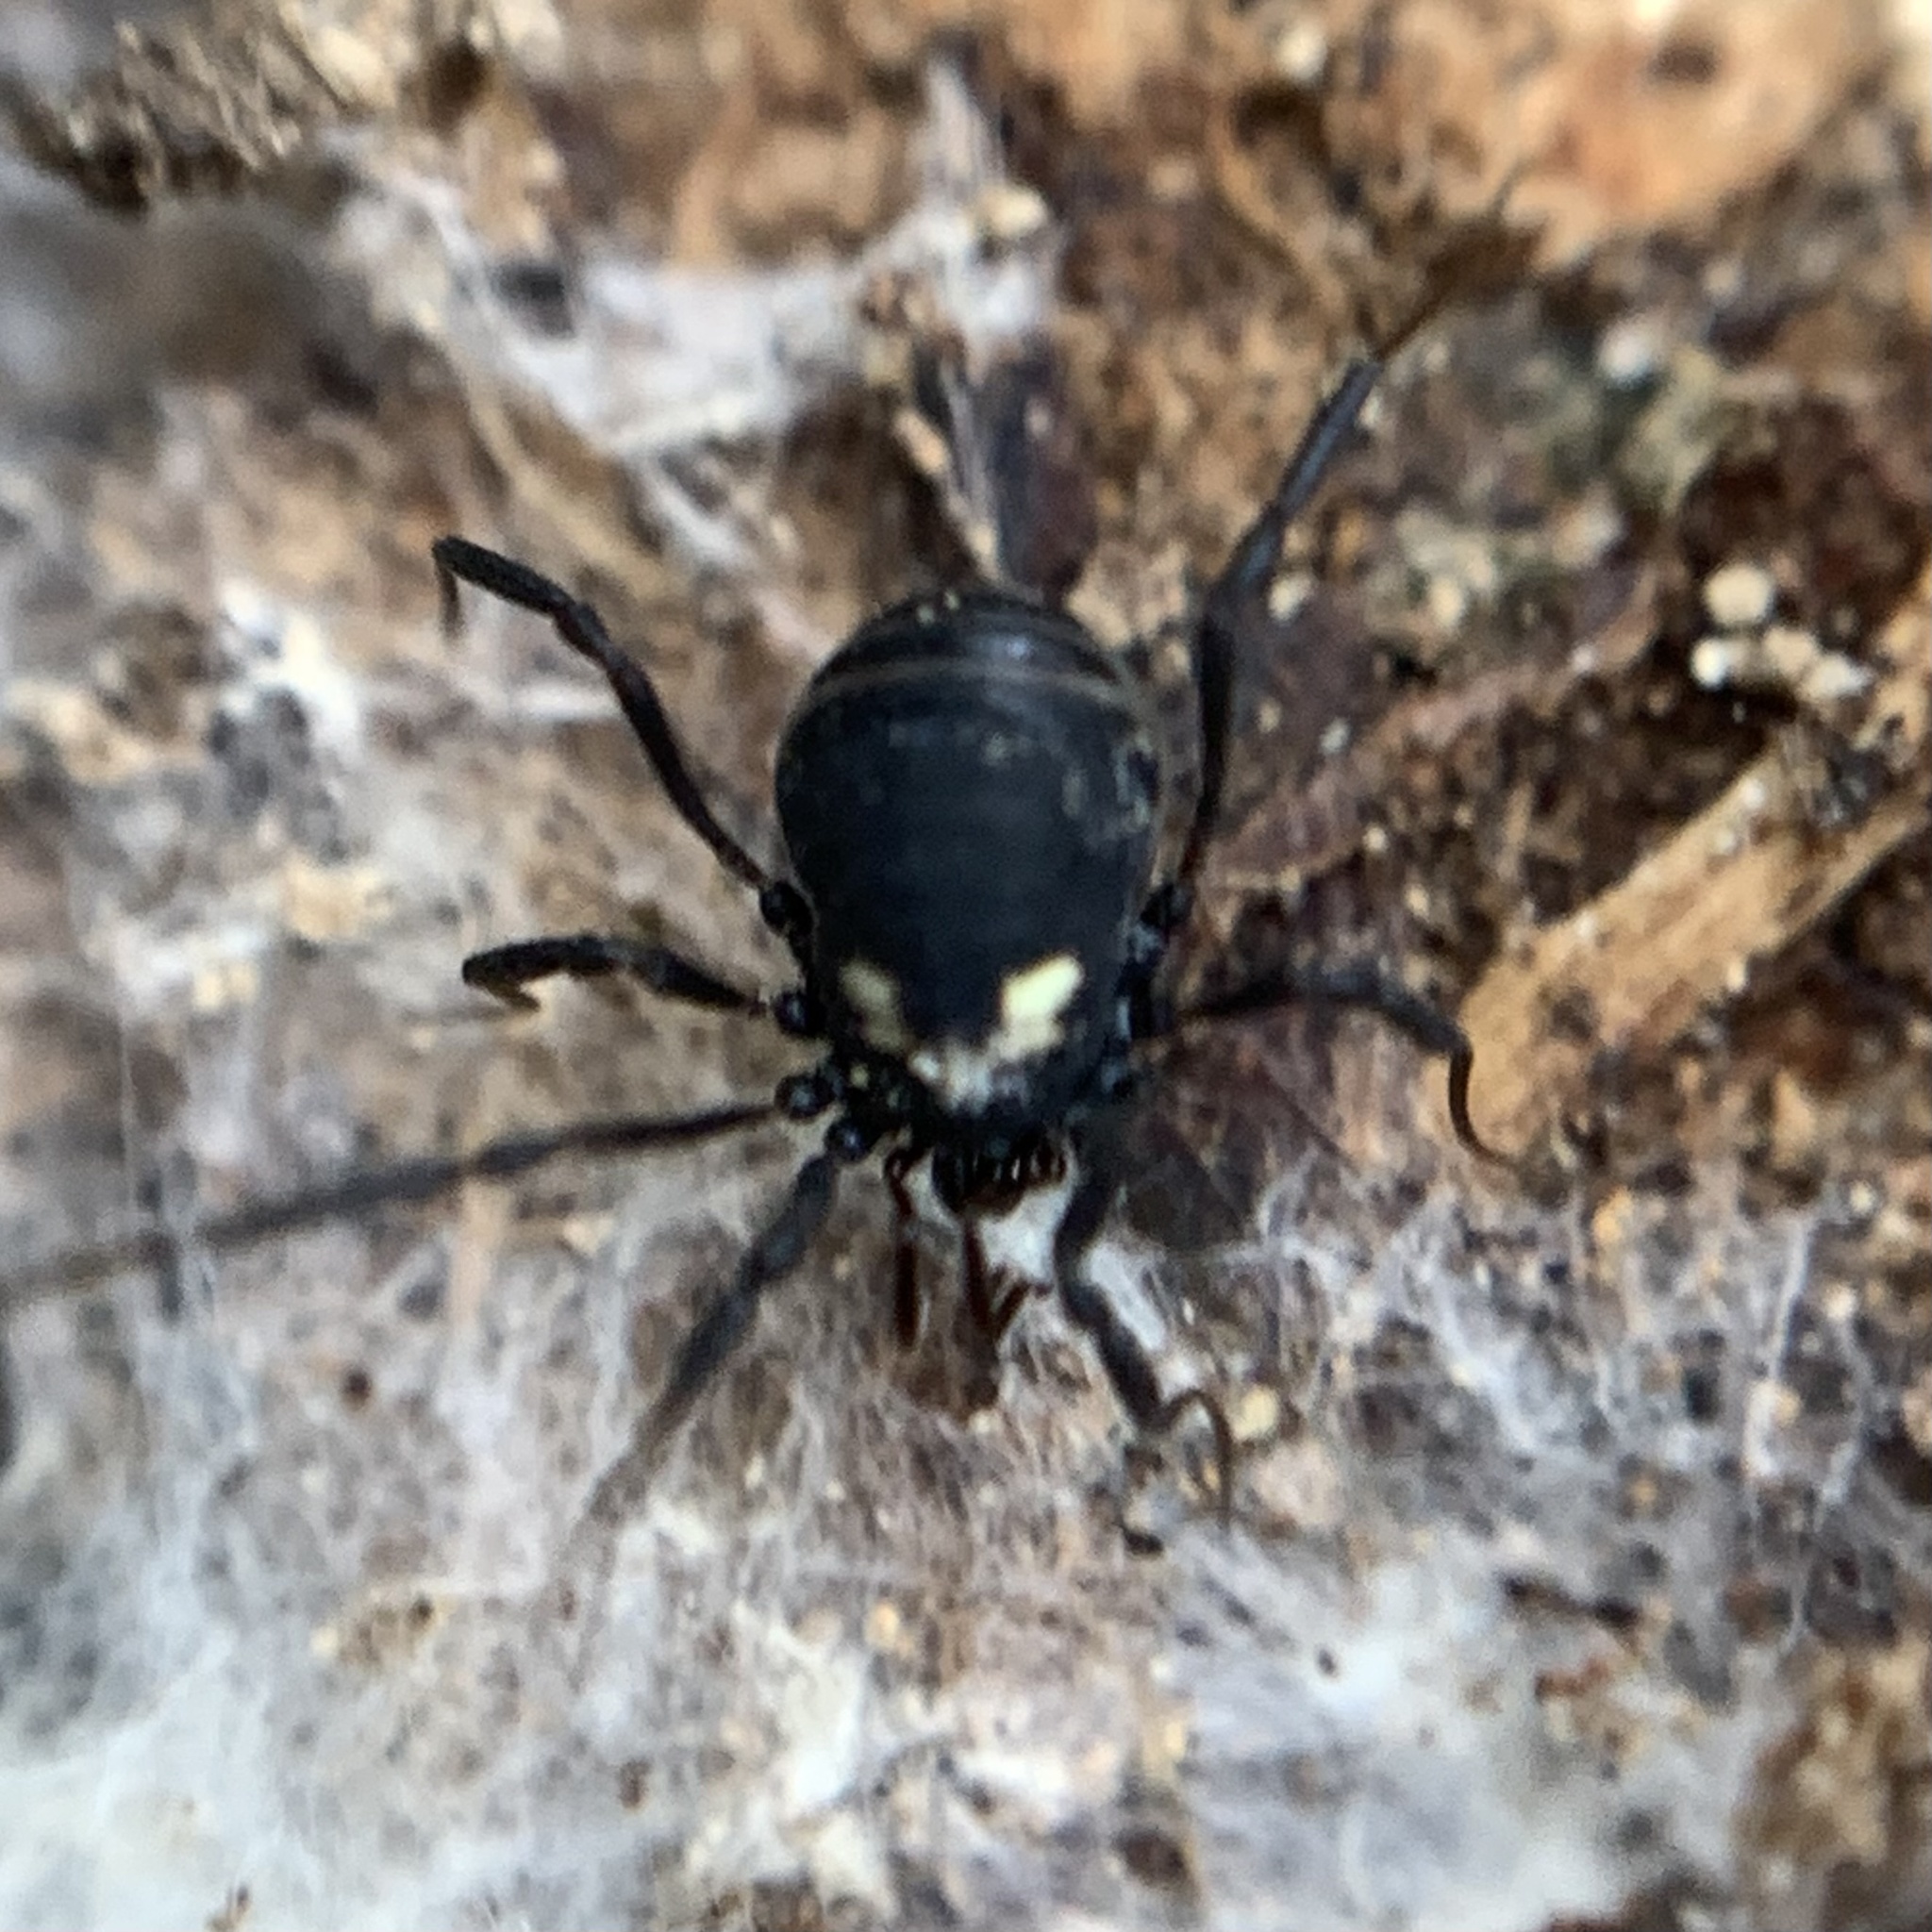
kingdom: Animalia
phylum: Arthropoda
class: Arachnida
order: Opiliones
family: Nemastomatidae
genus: Nemastoma
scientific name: Nemastoma bimaculatum
